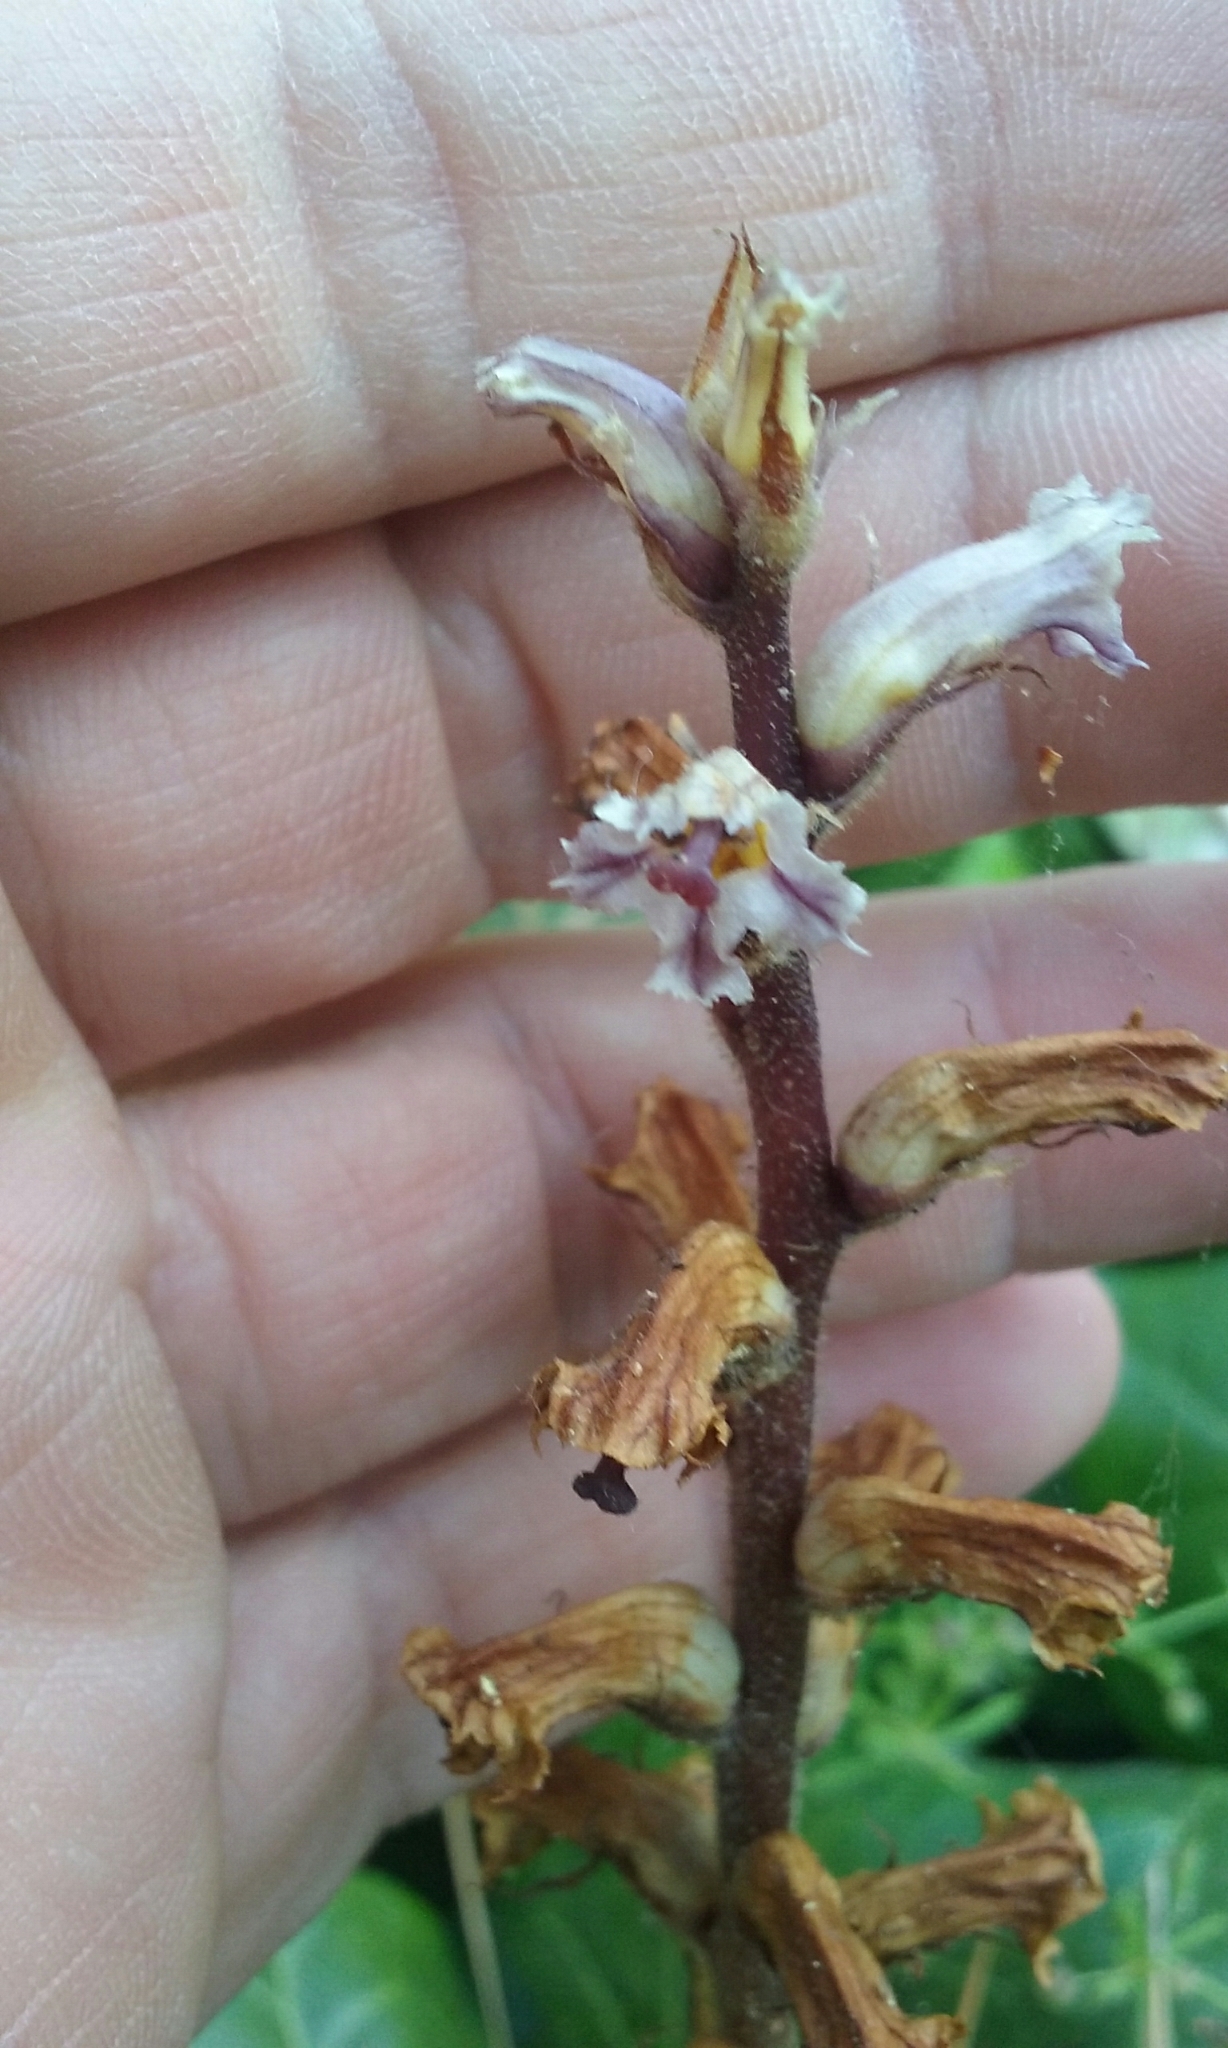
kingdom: Plantae
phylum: Tracheophyta
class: Magnoliopsida
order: Lamiales
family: Orobanchaceae
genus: Orobanche
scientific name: Orobanche hederae
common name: Ivy broomrape
